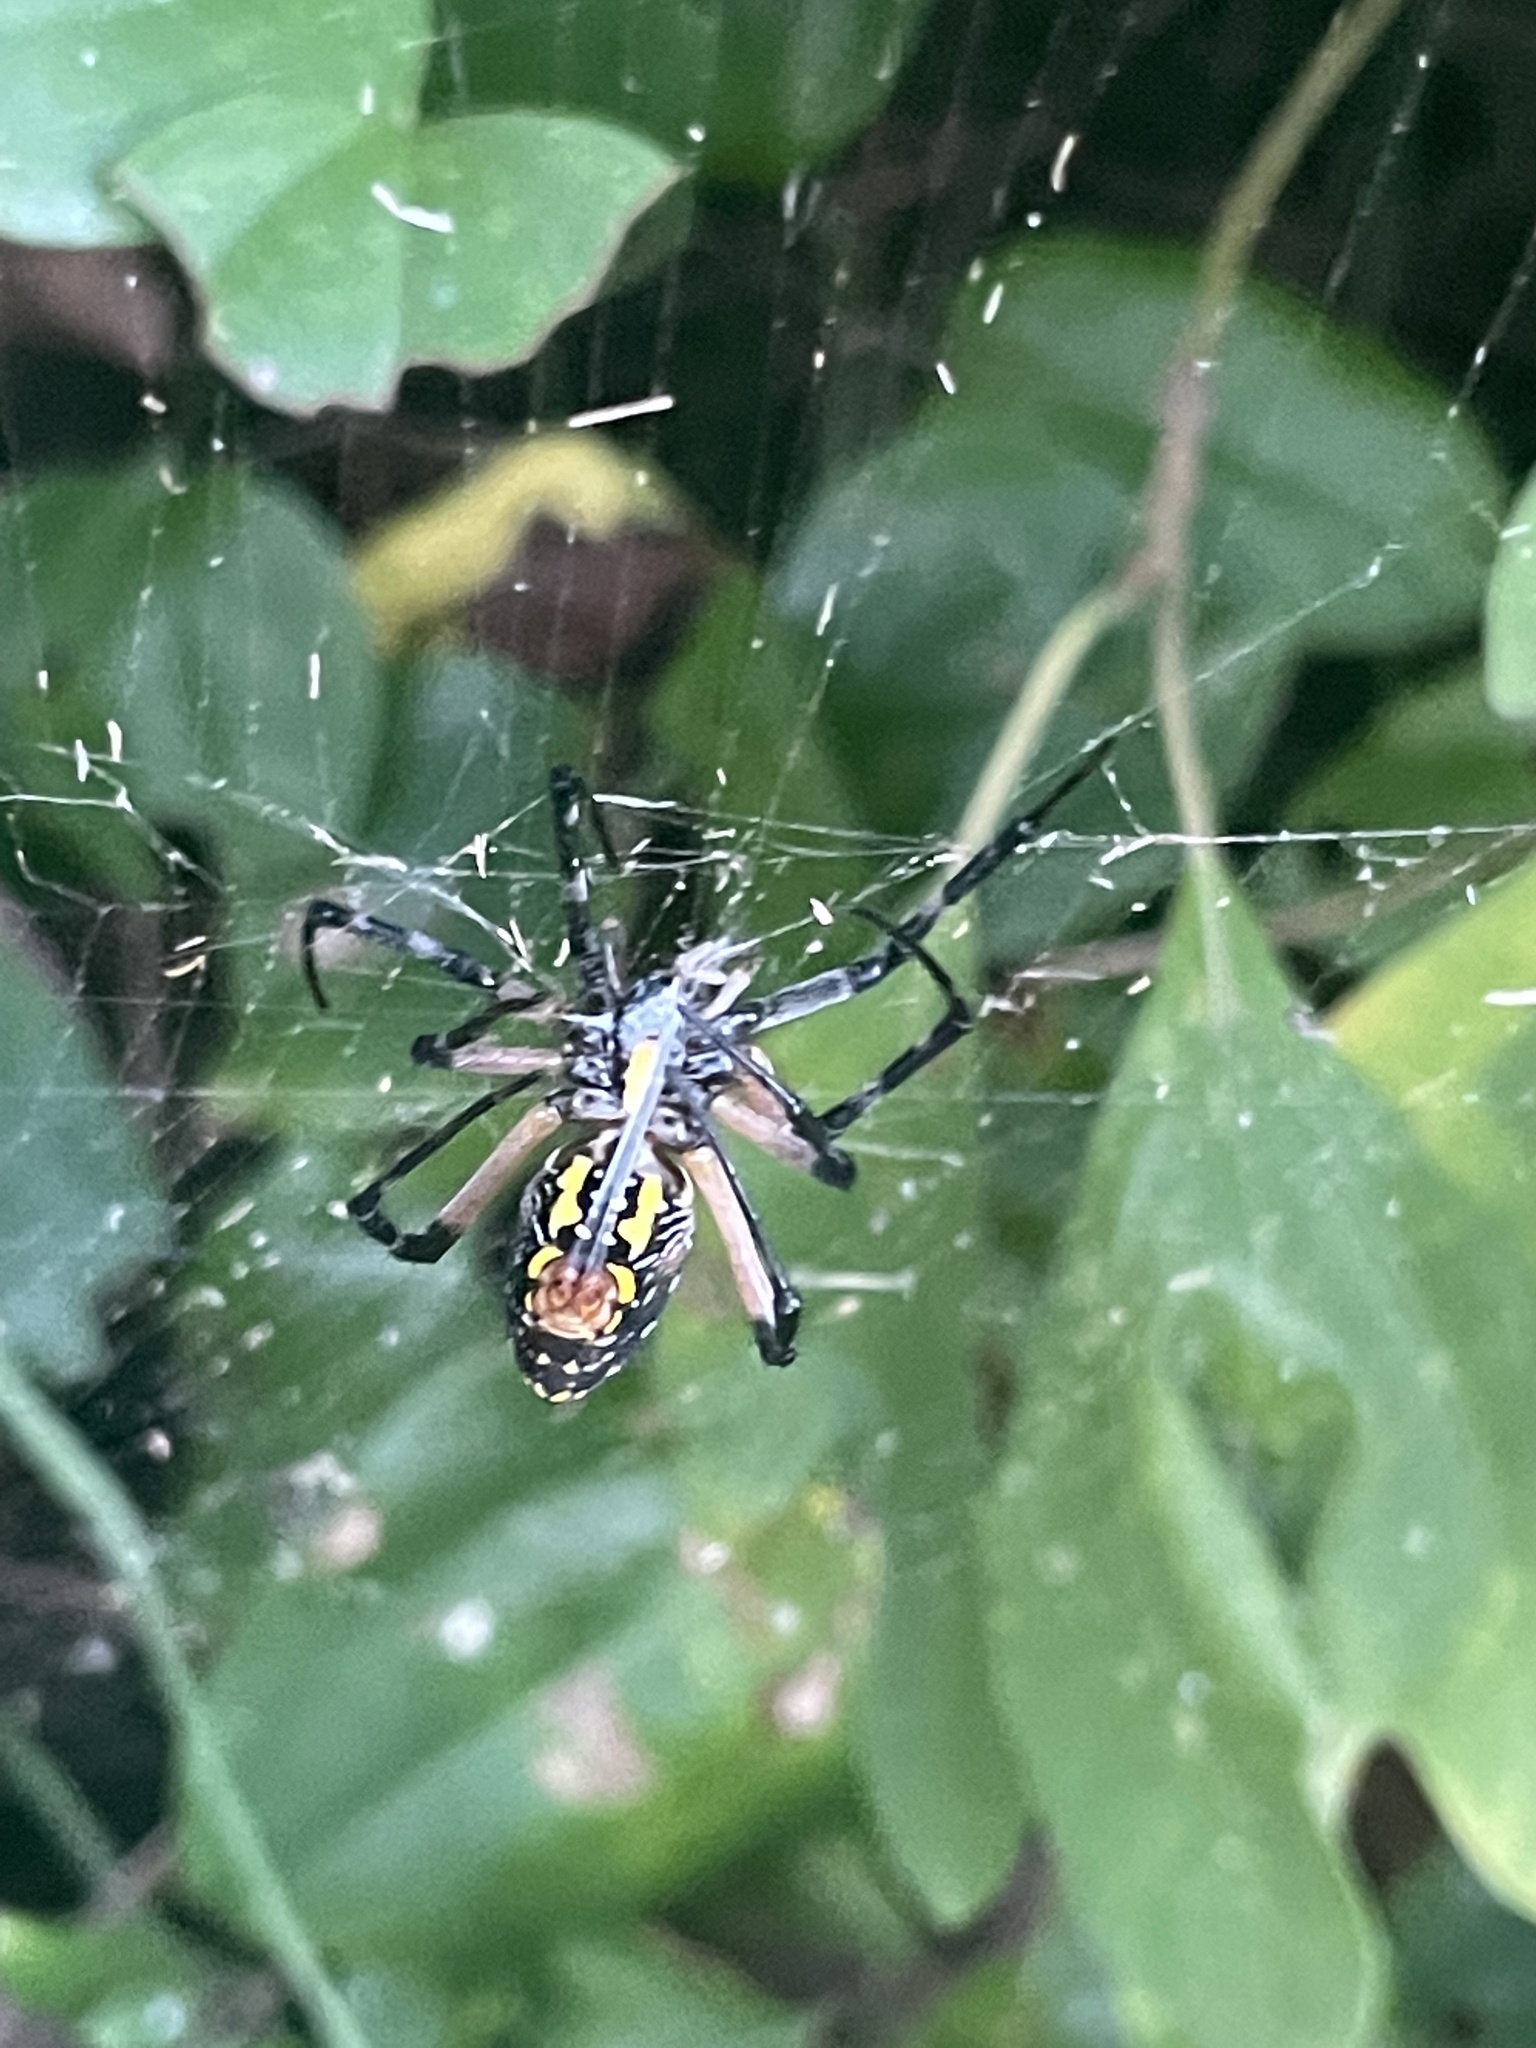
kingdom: Animalia
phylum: Arthropoda
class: Arachnida
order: Araneae
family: Araneidae
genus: Argiope
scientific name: Argiope aurantia
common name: Orb weavers
